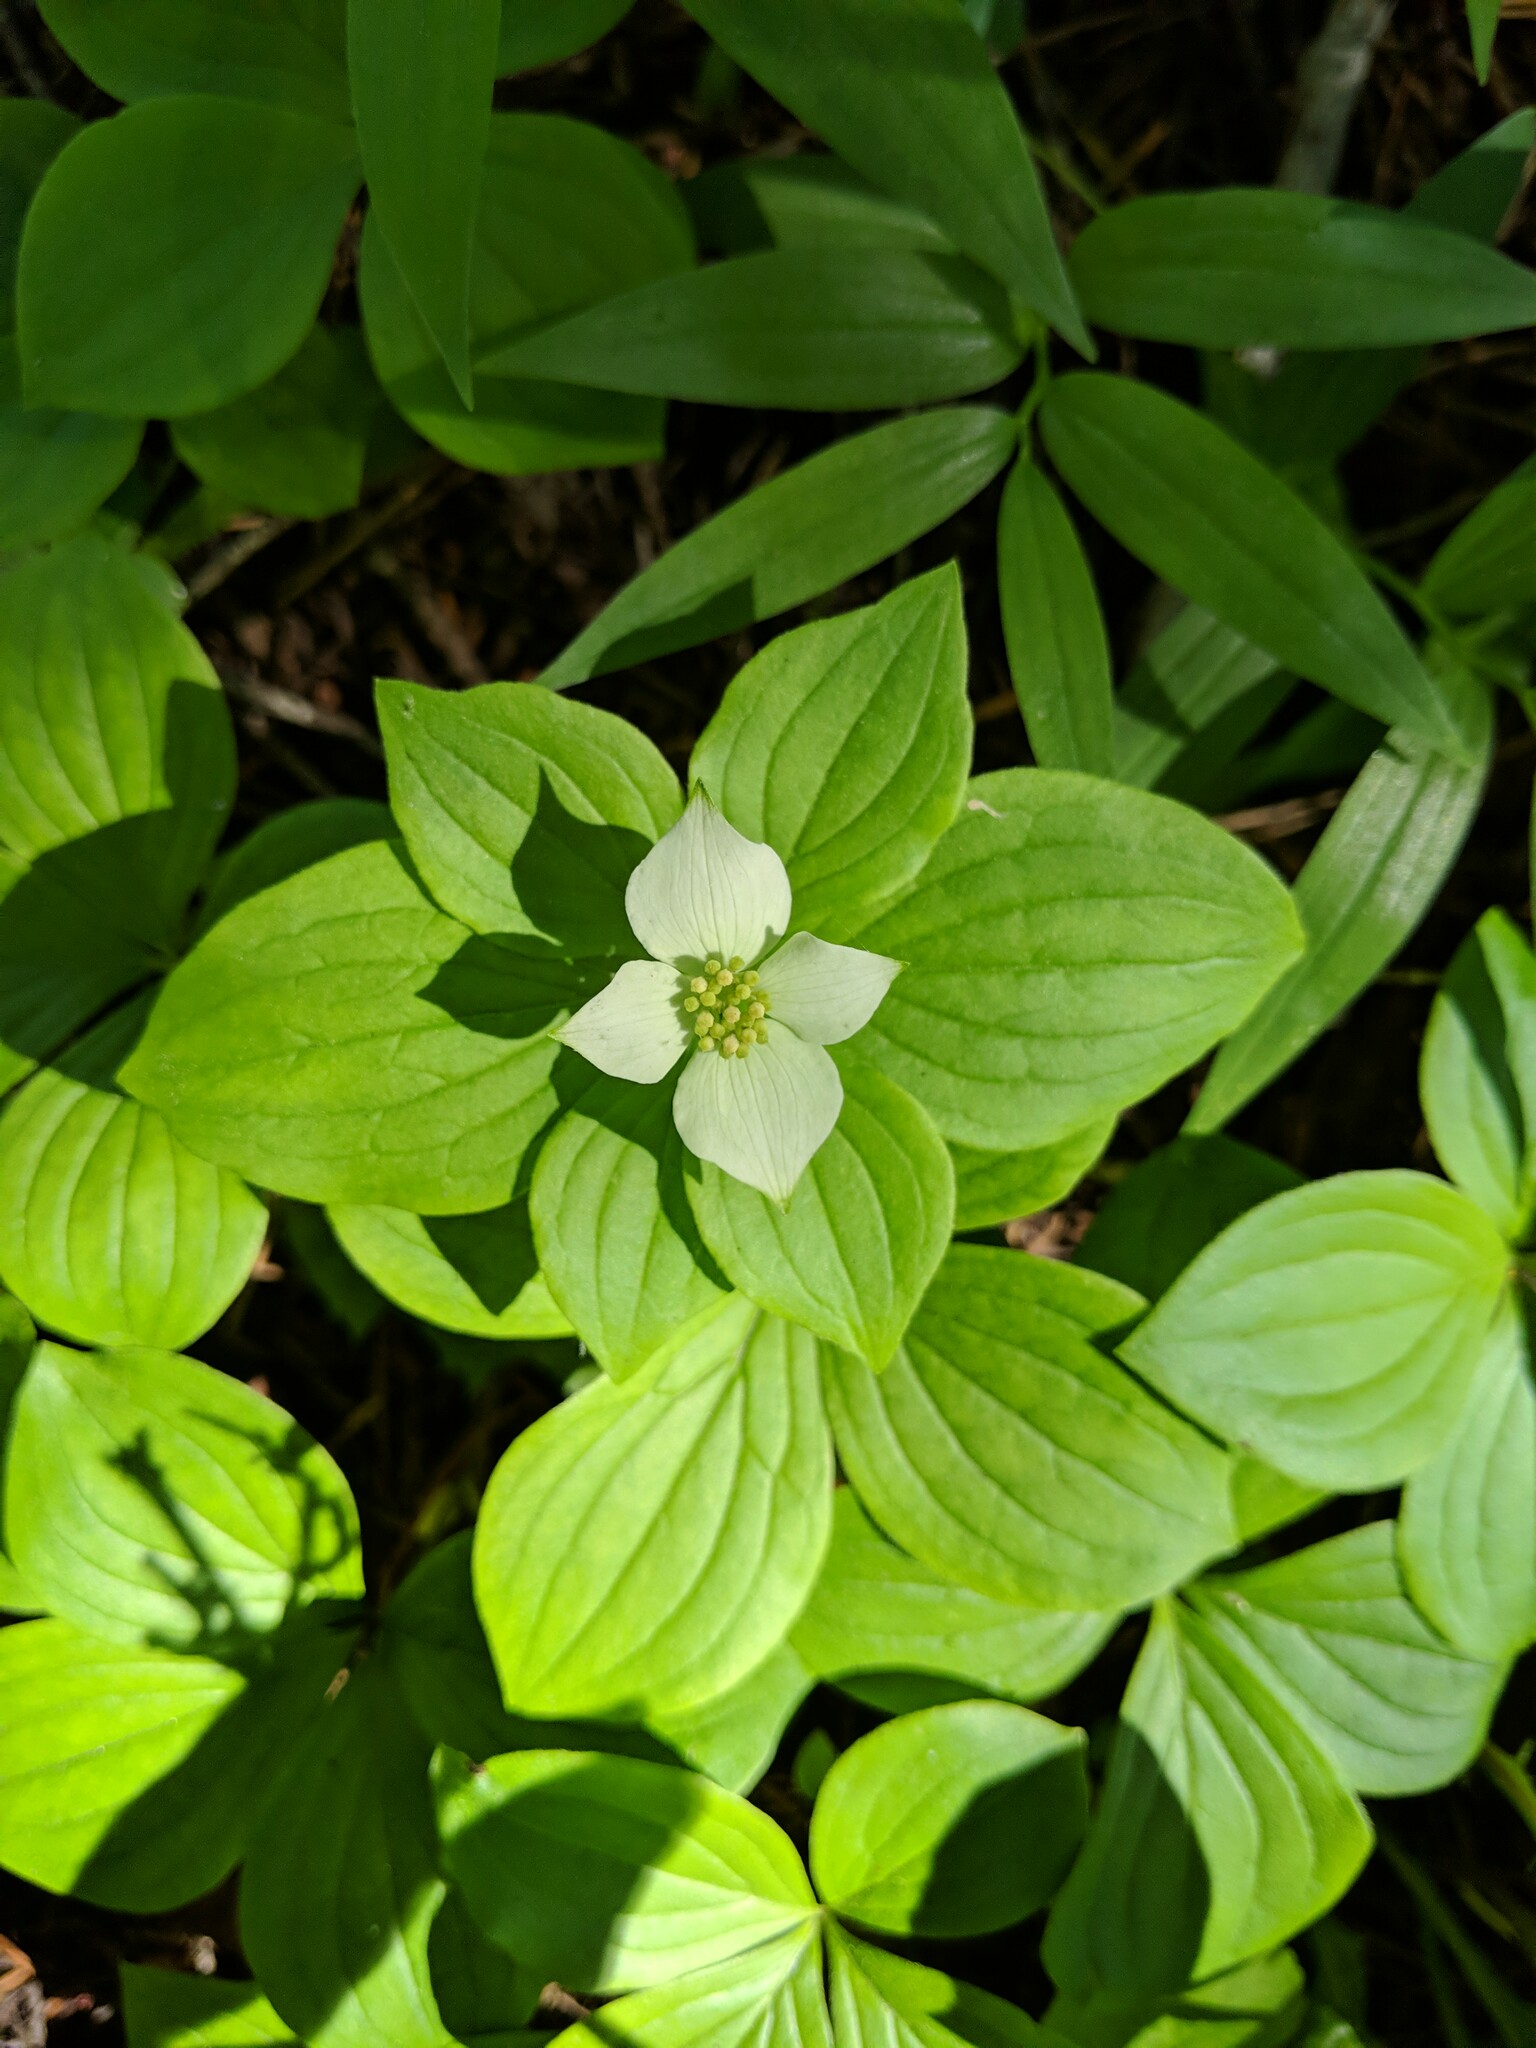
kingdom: Plantae
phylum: Tracheophyta
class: Magnoliopsida
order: Cornales
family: Cornaceae
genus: Cornus
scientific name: Cornus canadensis
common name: Creeping dogwood
